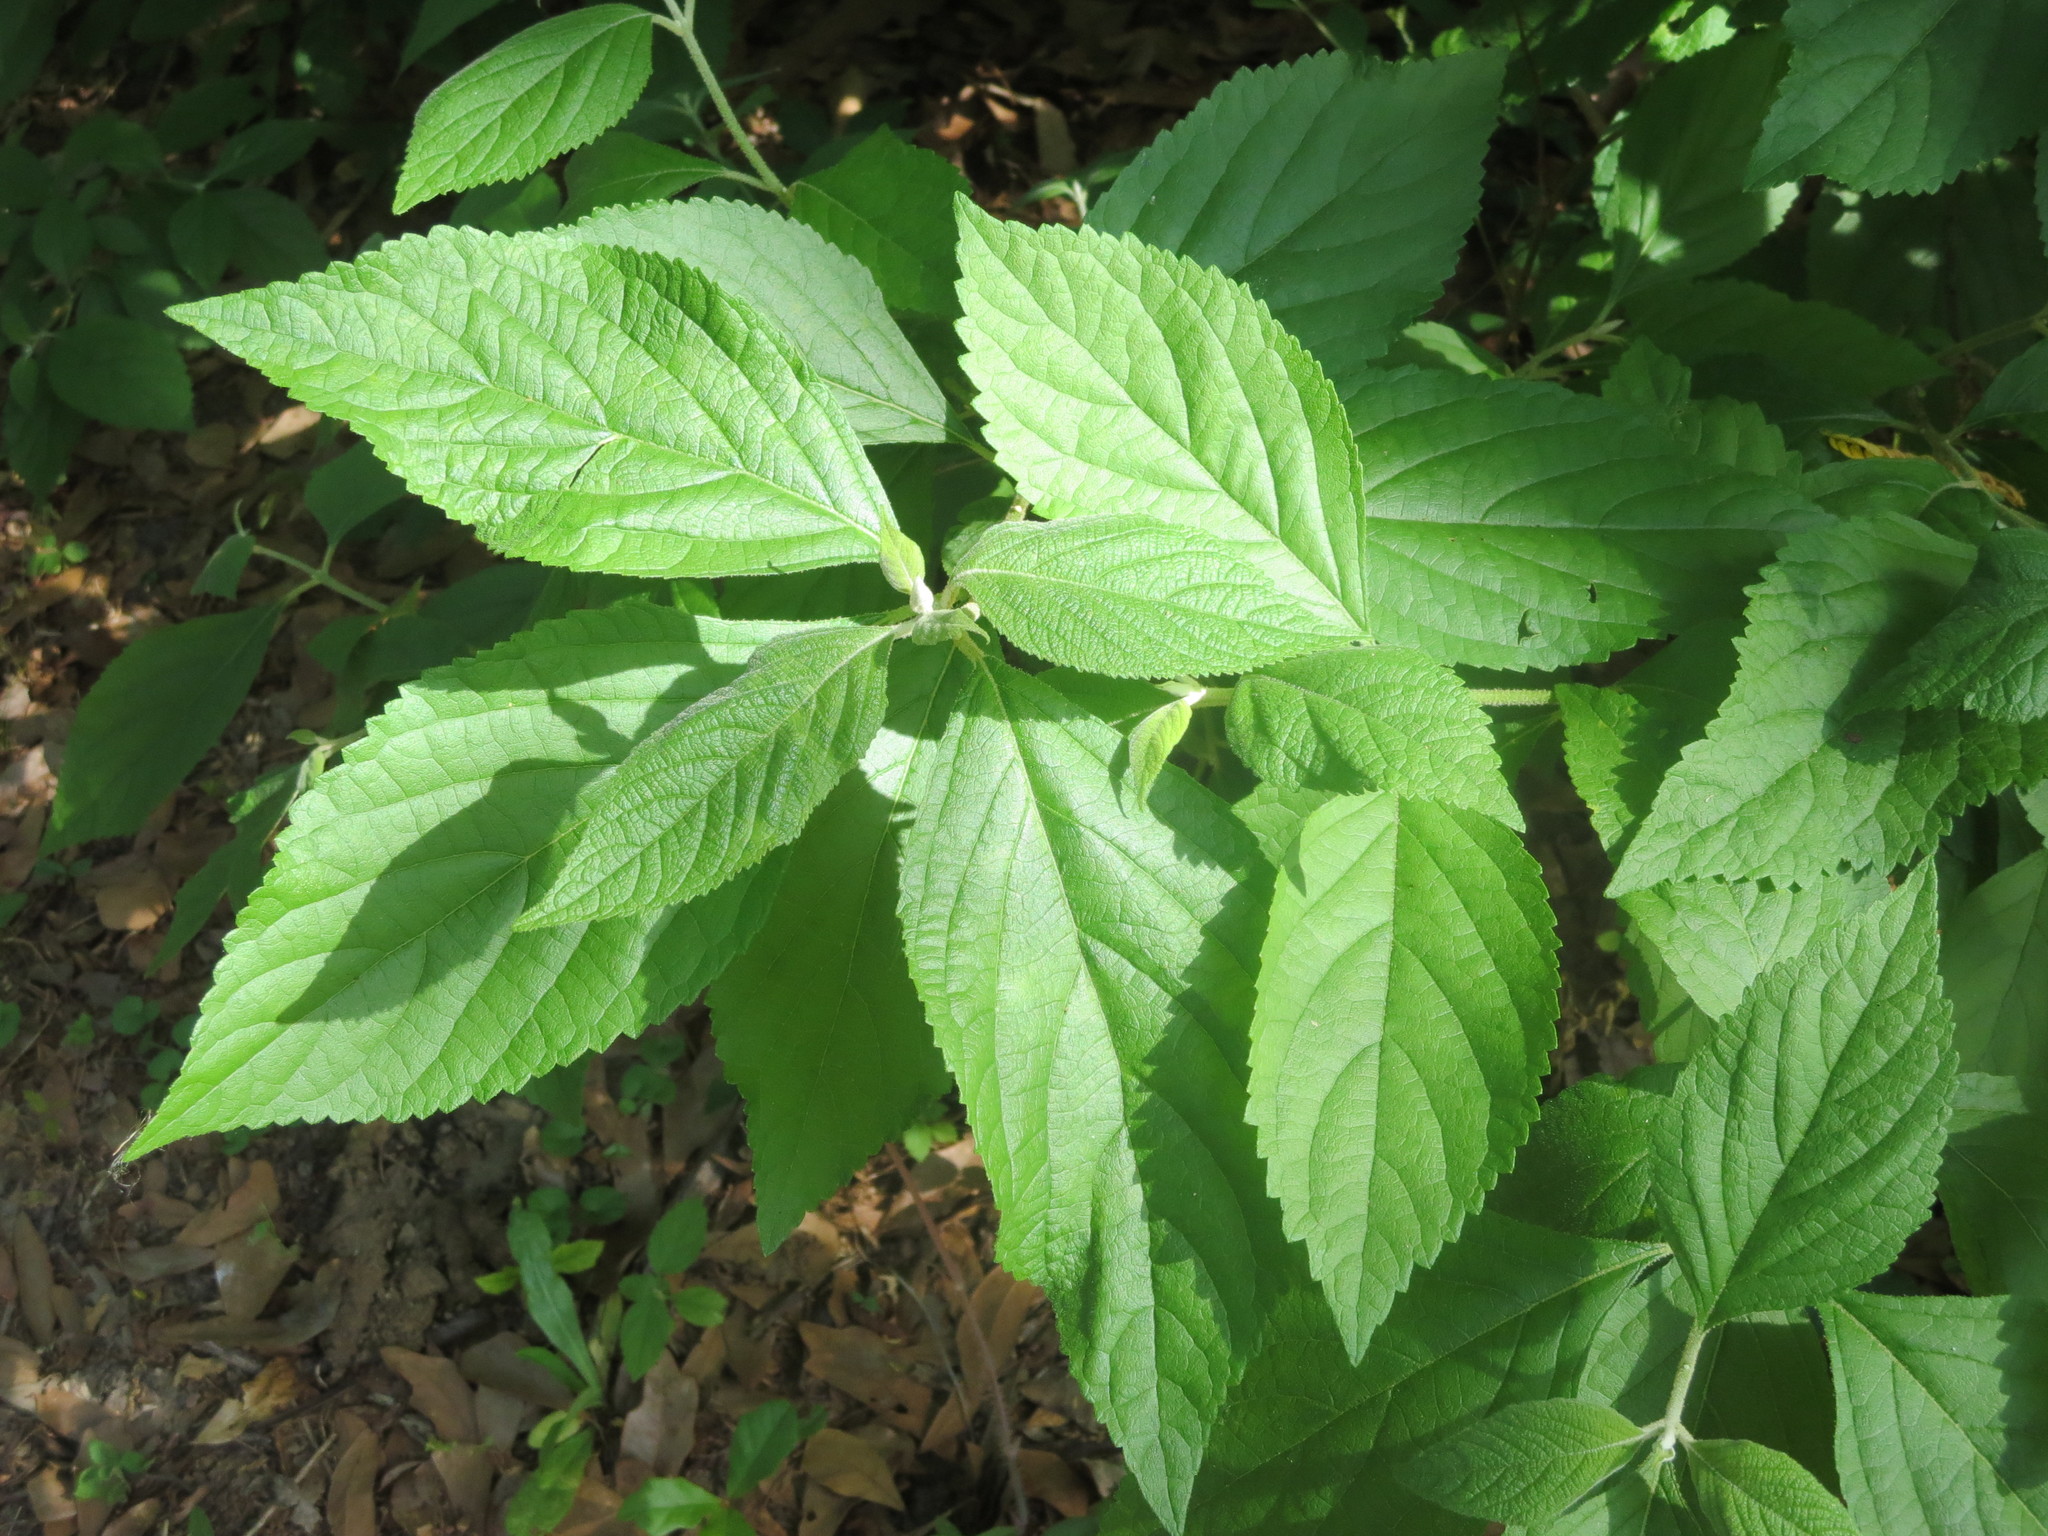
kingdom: Plantae
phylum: Tracheophyta
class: Magnoliopsida
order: Lamiales
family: Lamiaceae
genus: Callicarpa
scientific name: Callicarpa americana
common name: American beautyberry
